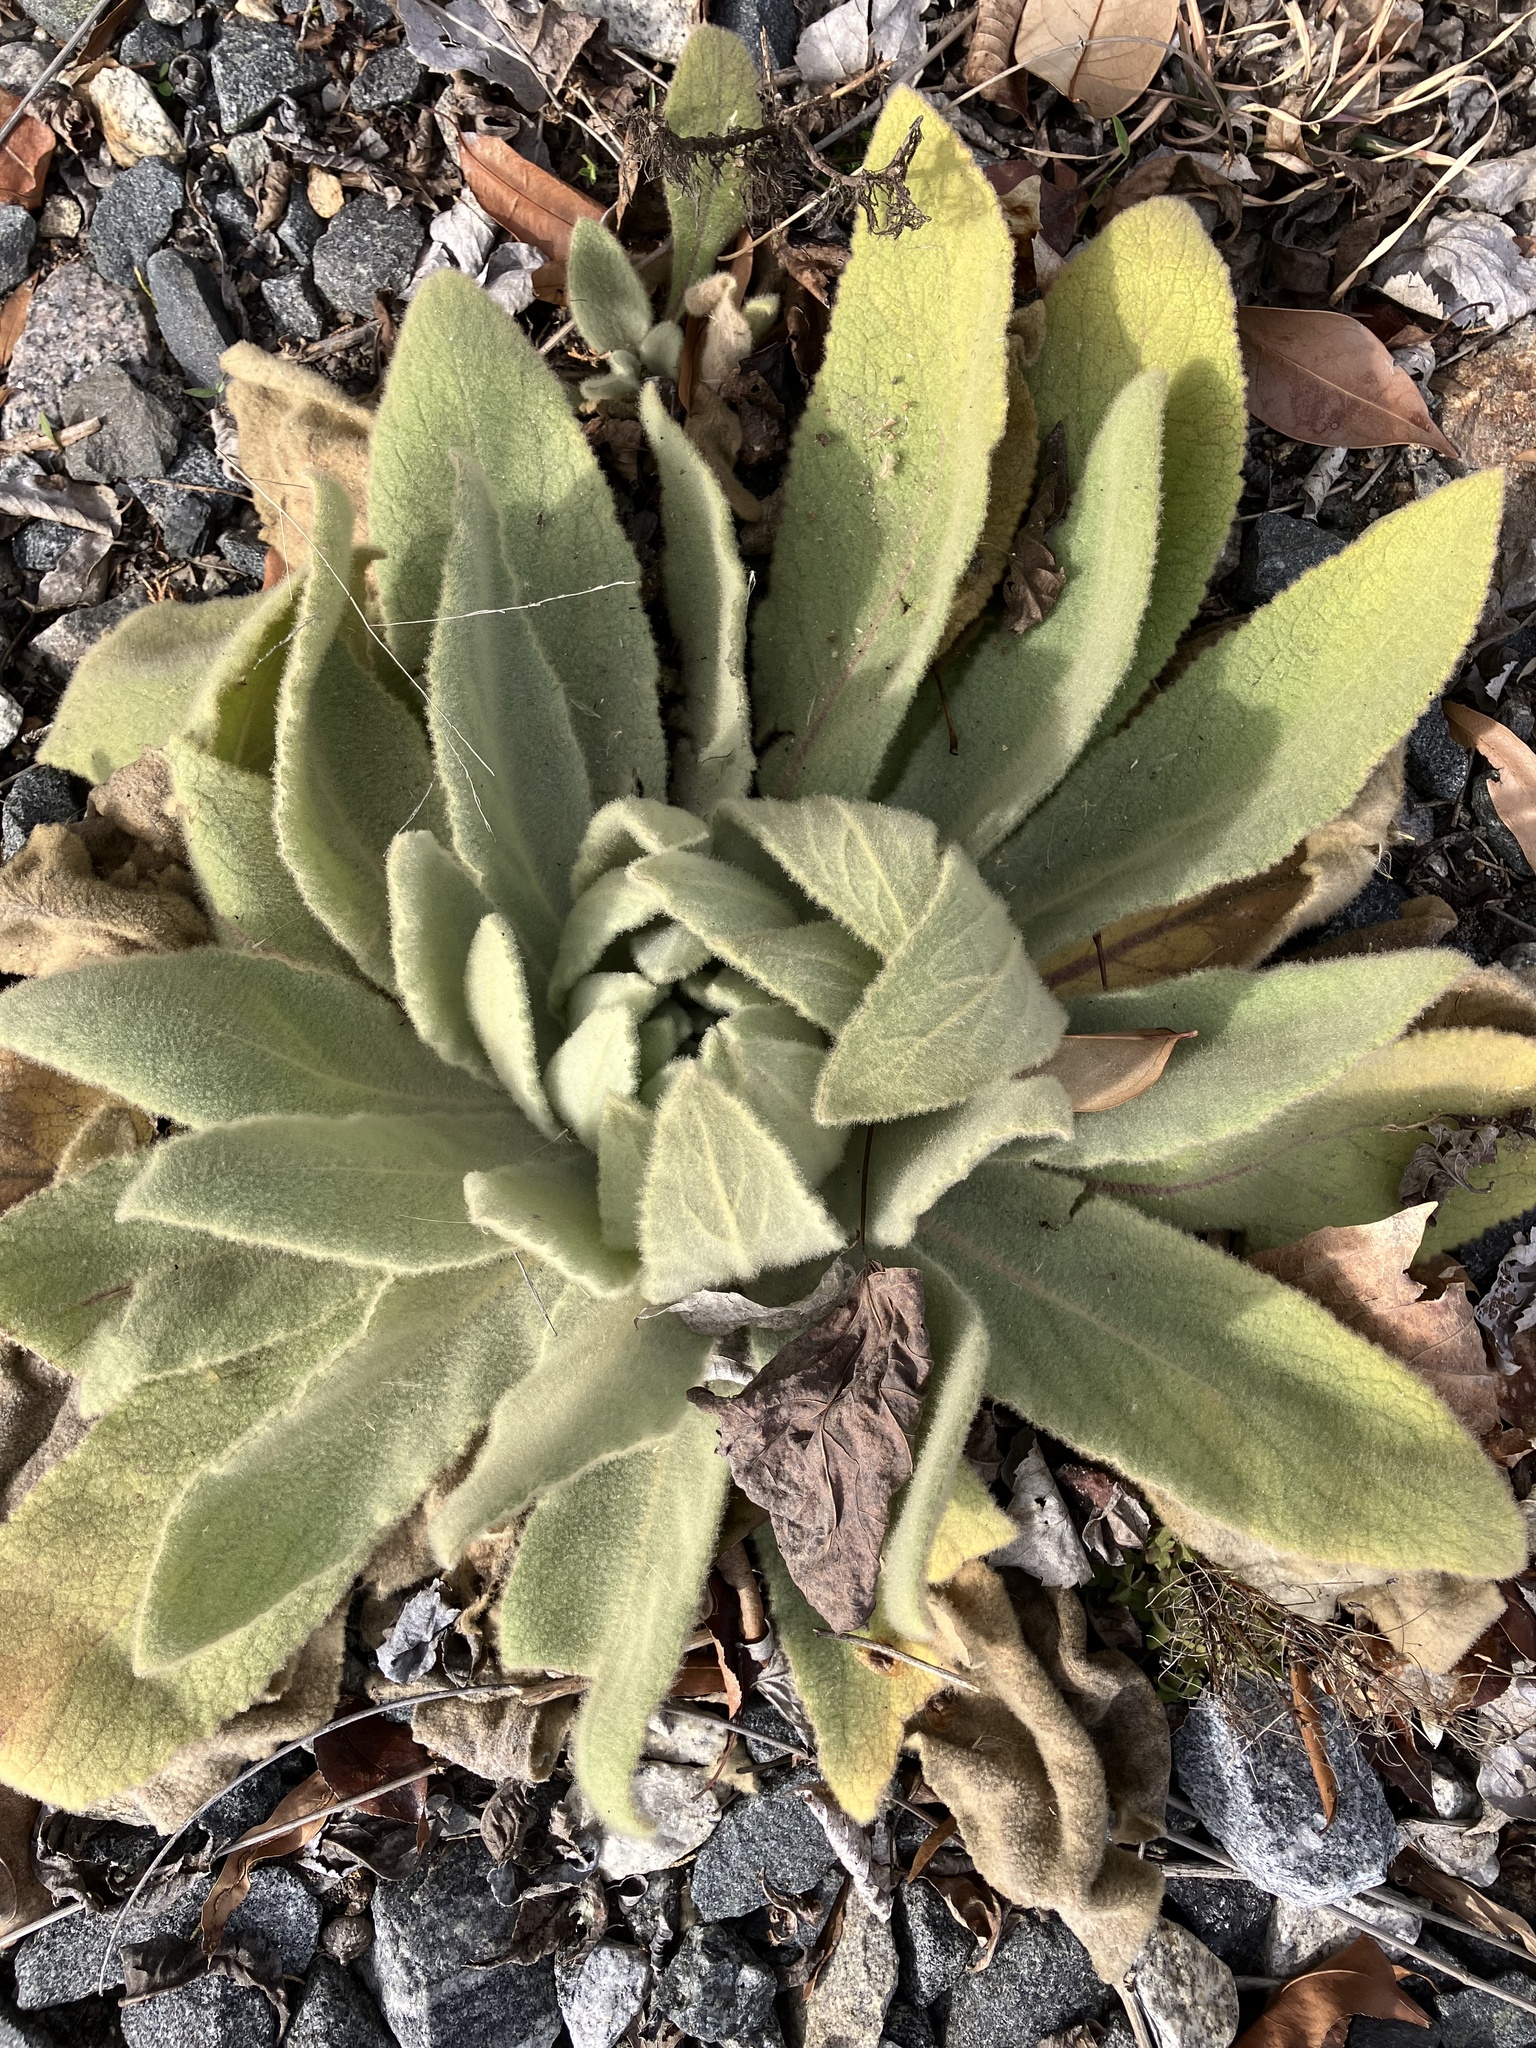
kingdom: Plantae
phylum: Tracheophyta
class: Magnoliopsida
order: Lamiales
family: Scrophulariaceae
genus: Verbascum
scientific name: Verbascum thapsus
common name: Common mullein
